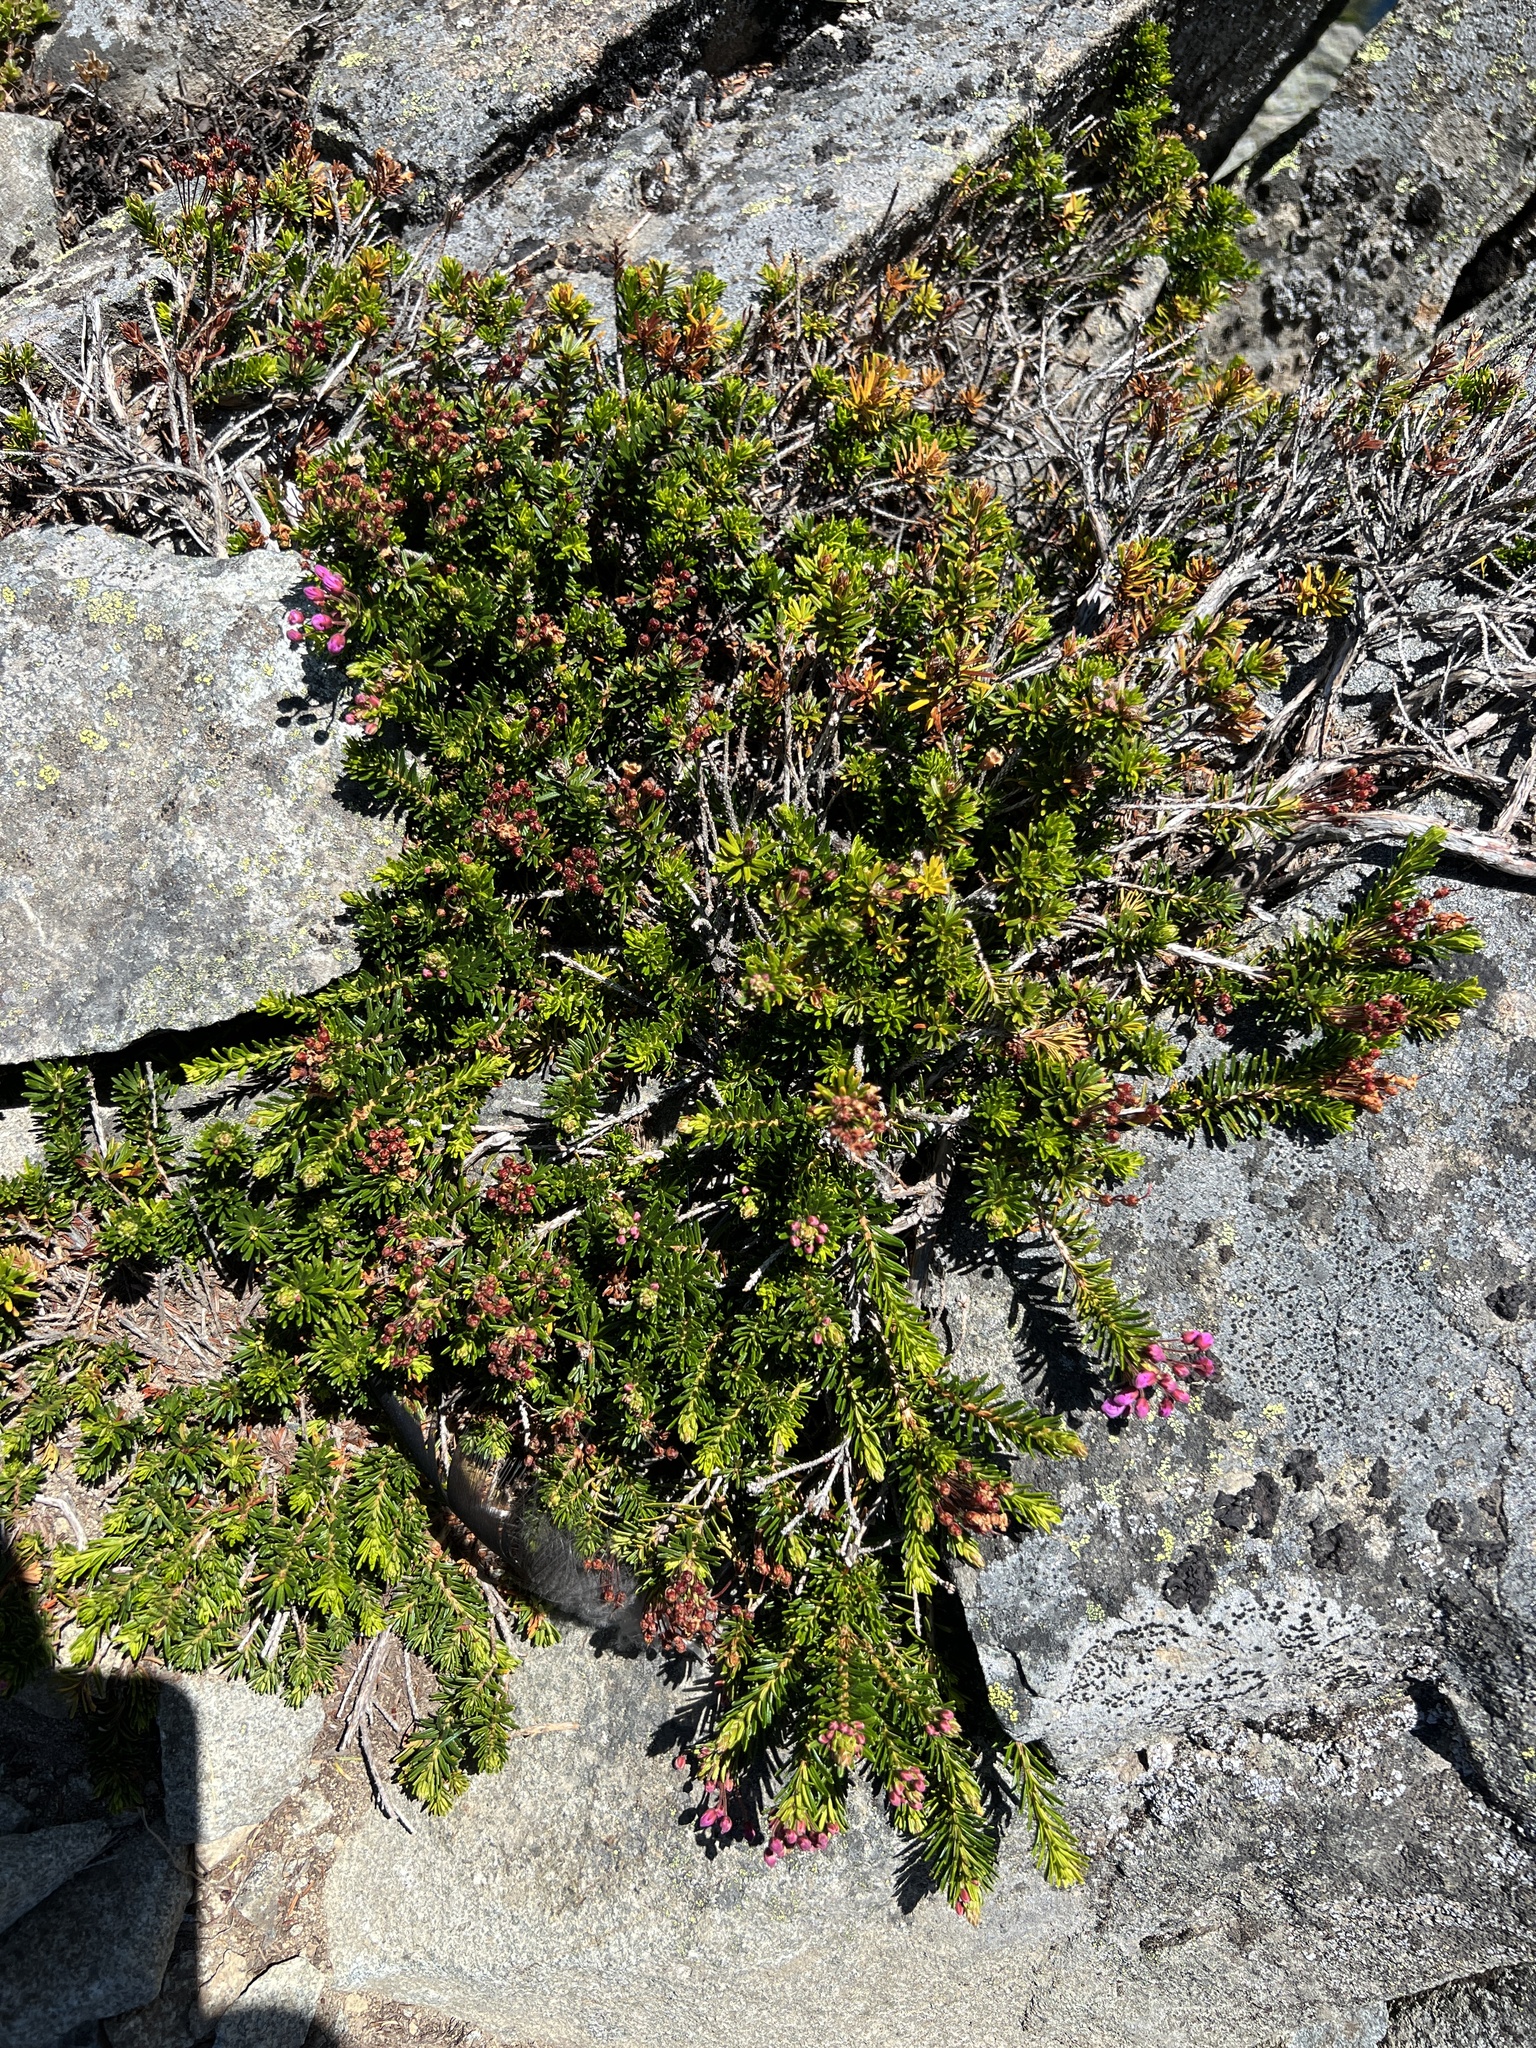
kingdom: Plantae
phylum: Tracheophyta
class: Magnoliopsida
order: Ericales
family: Ericaceae
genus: Phyllodoce
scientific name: Phyllodoce empetriformis
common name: Pink mountain heather
